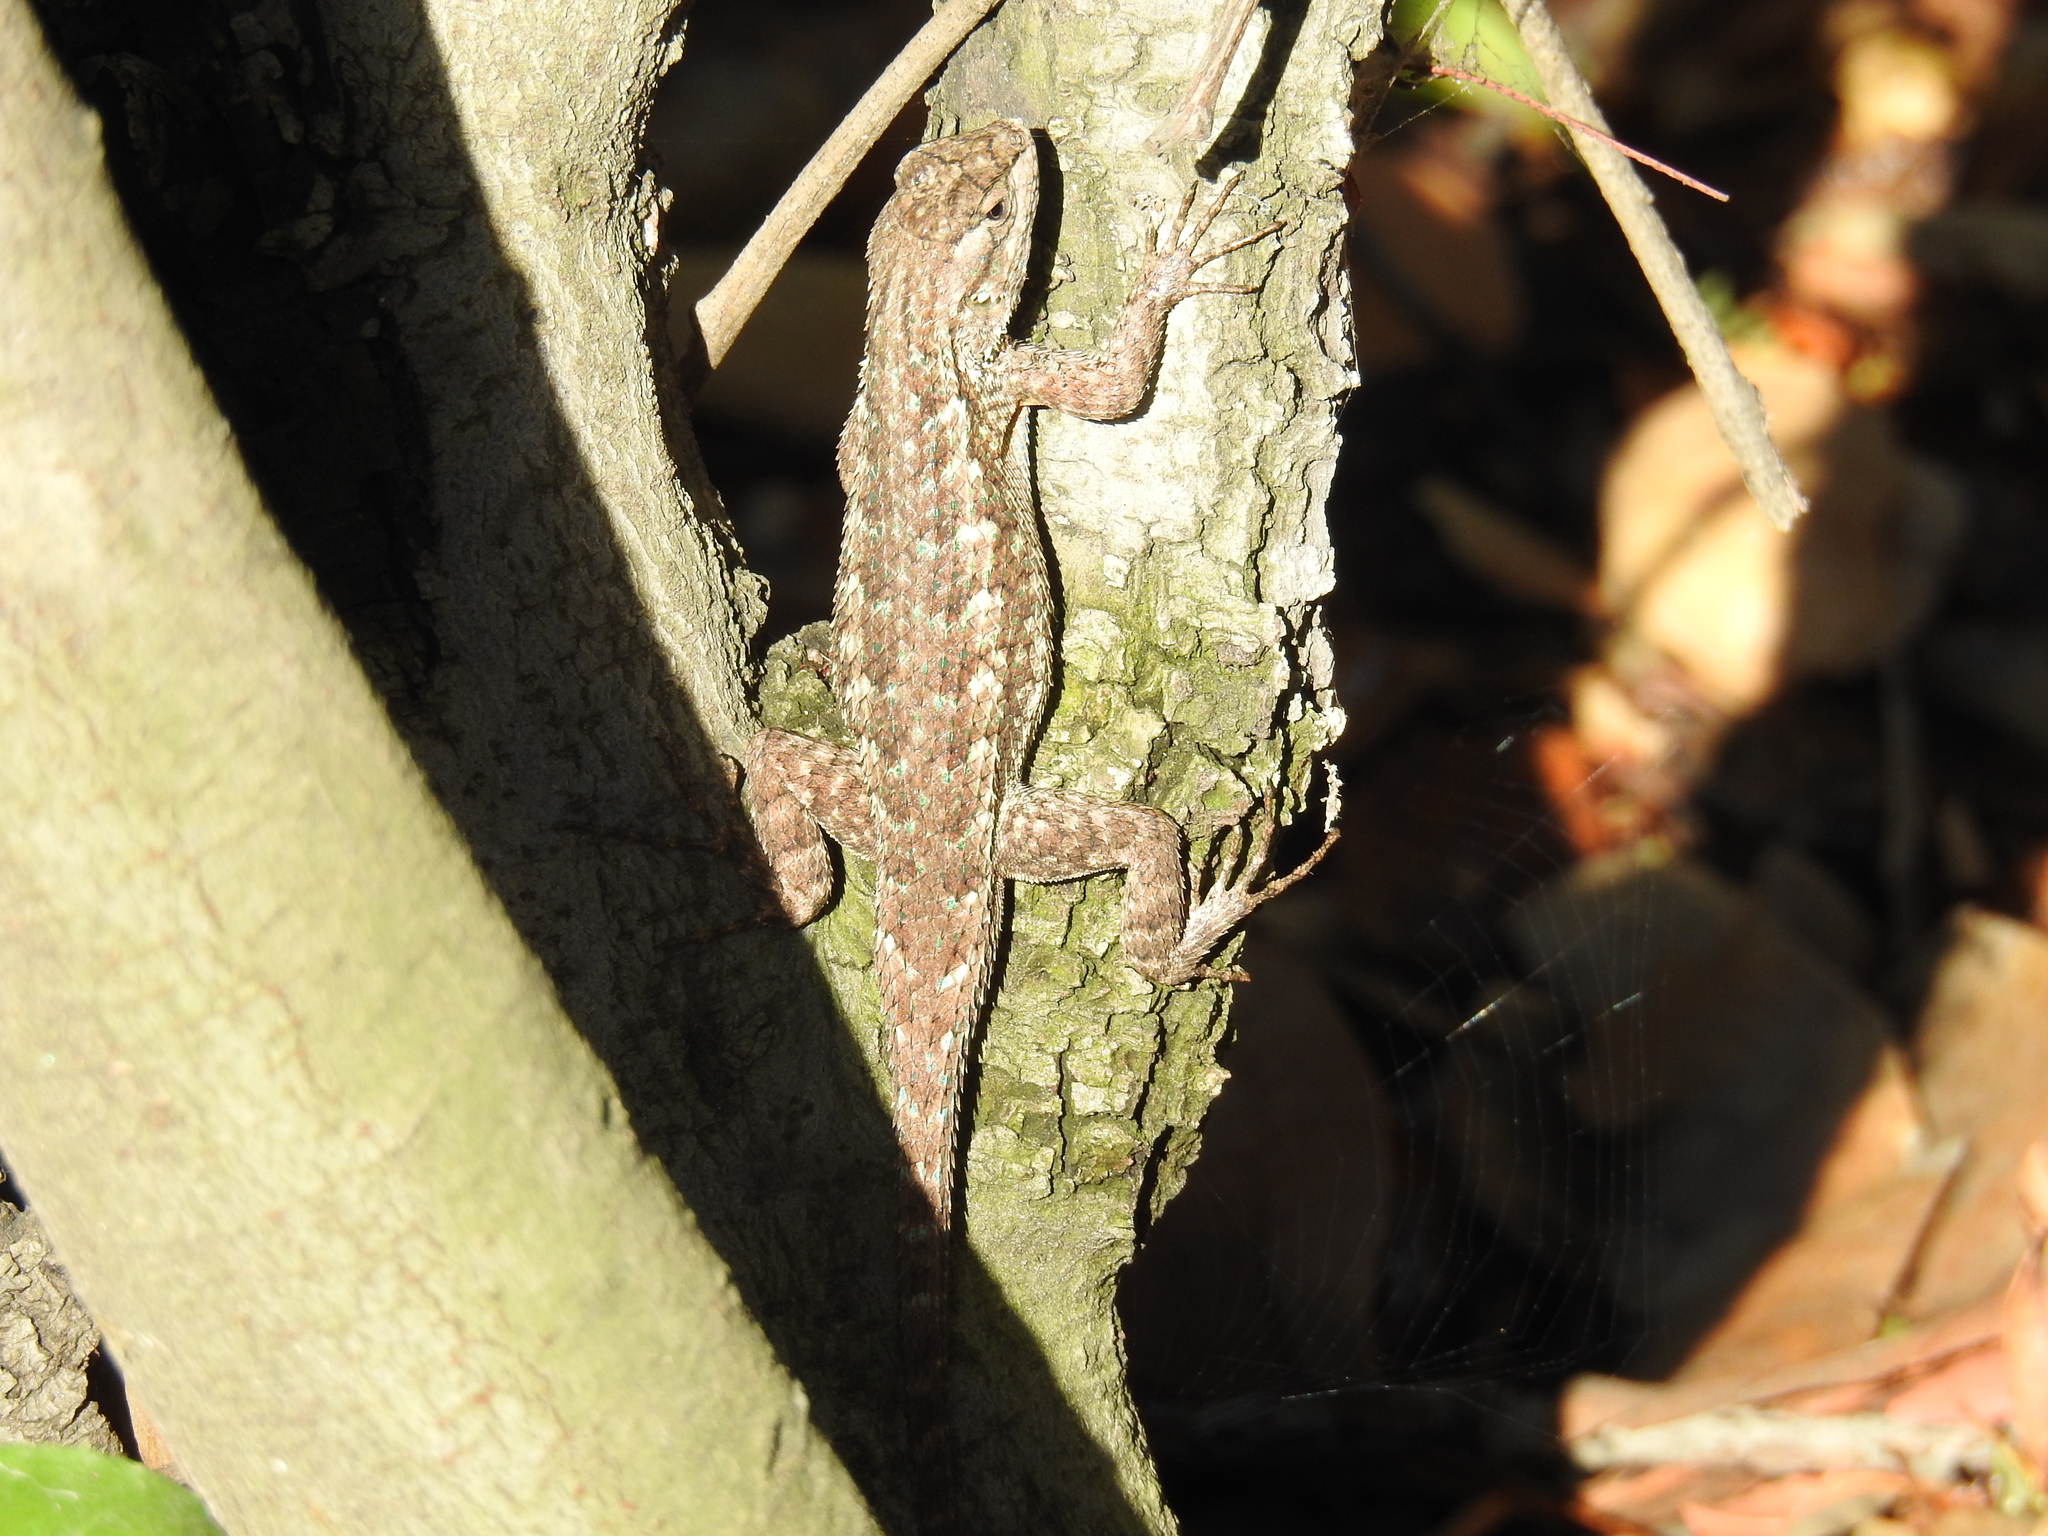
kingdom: Animalia
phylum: Chordata
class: Squamata
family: Phrynosomatidae
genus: Sceloporus
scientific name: Sceloporus occidentalis
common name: Western fence lizard
